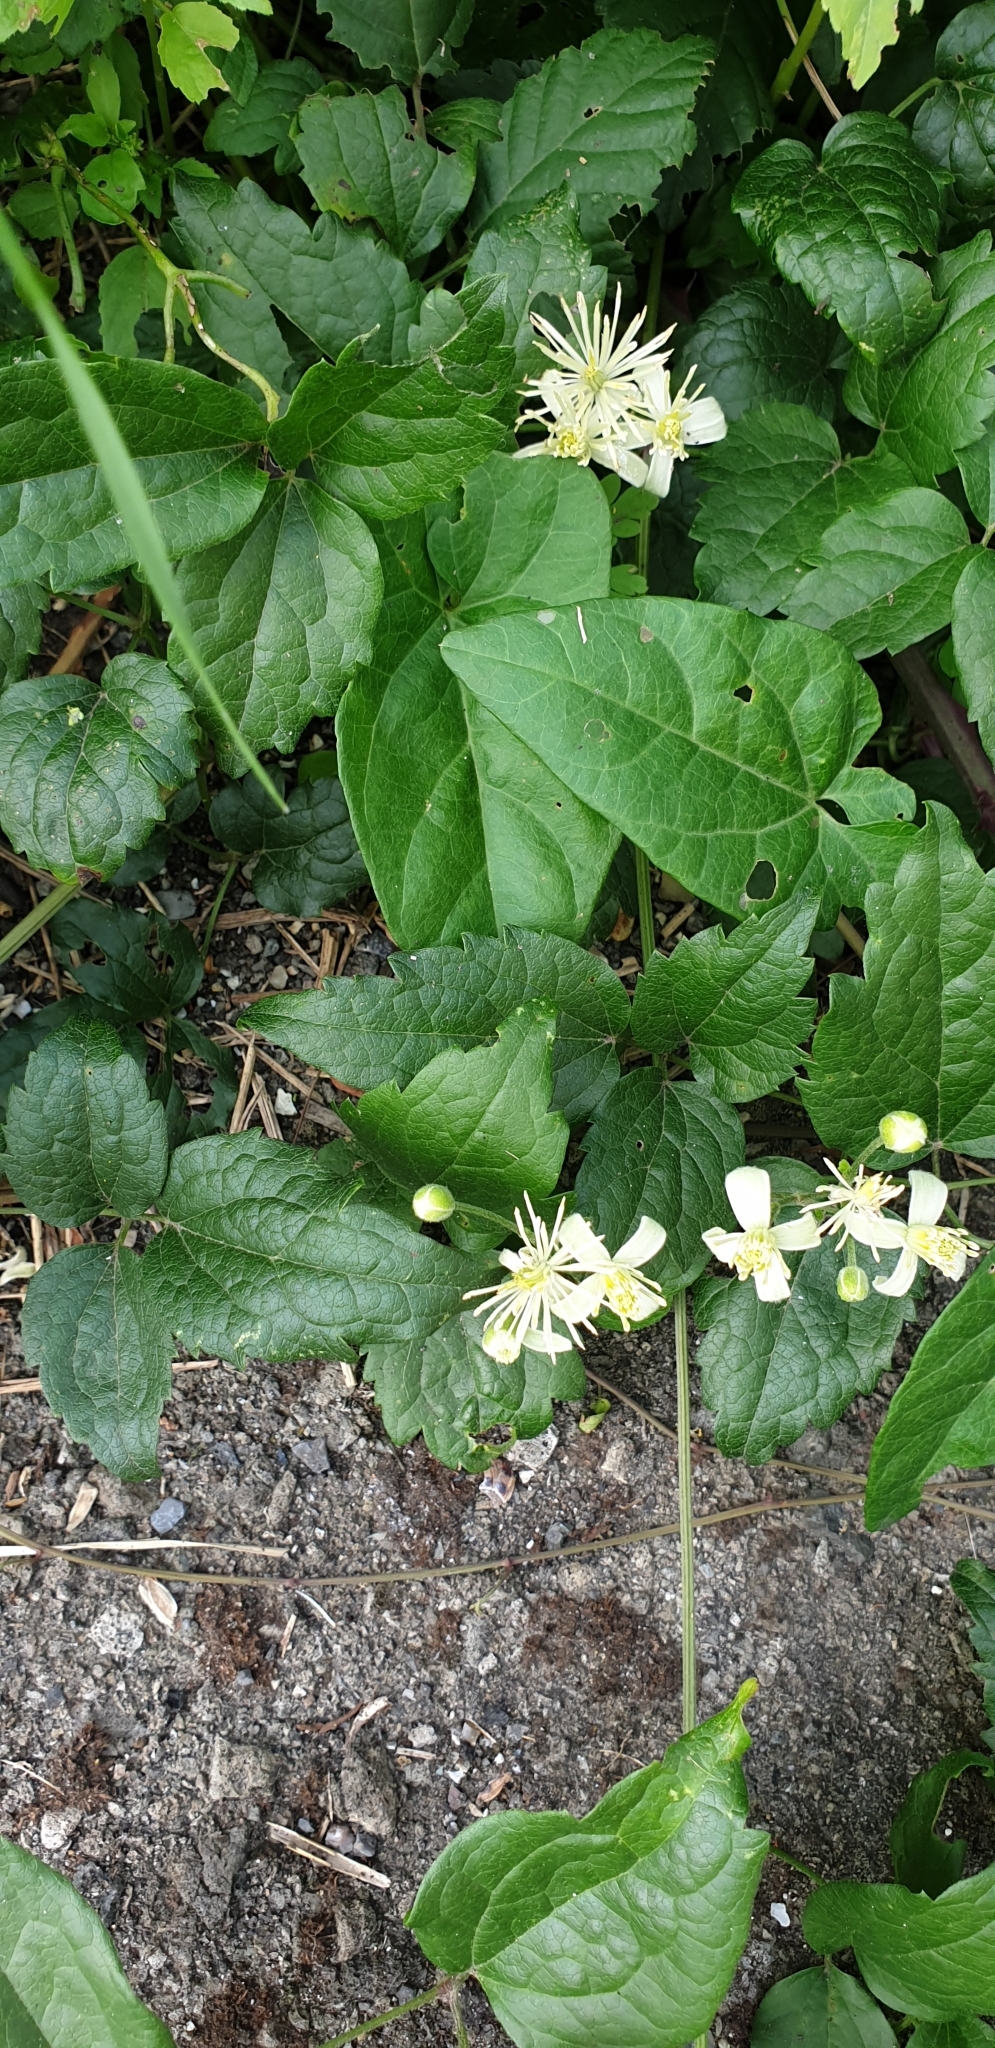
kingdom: Plantae
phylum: Tracheophyta
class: Magnoliopsida
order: Ranunculales
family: Ranunculaceae
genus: Clematis
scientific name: Clematis vitalba
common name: Evergreen clematis
